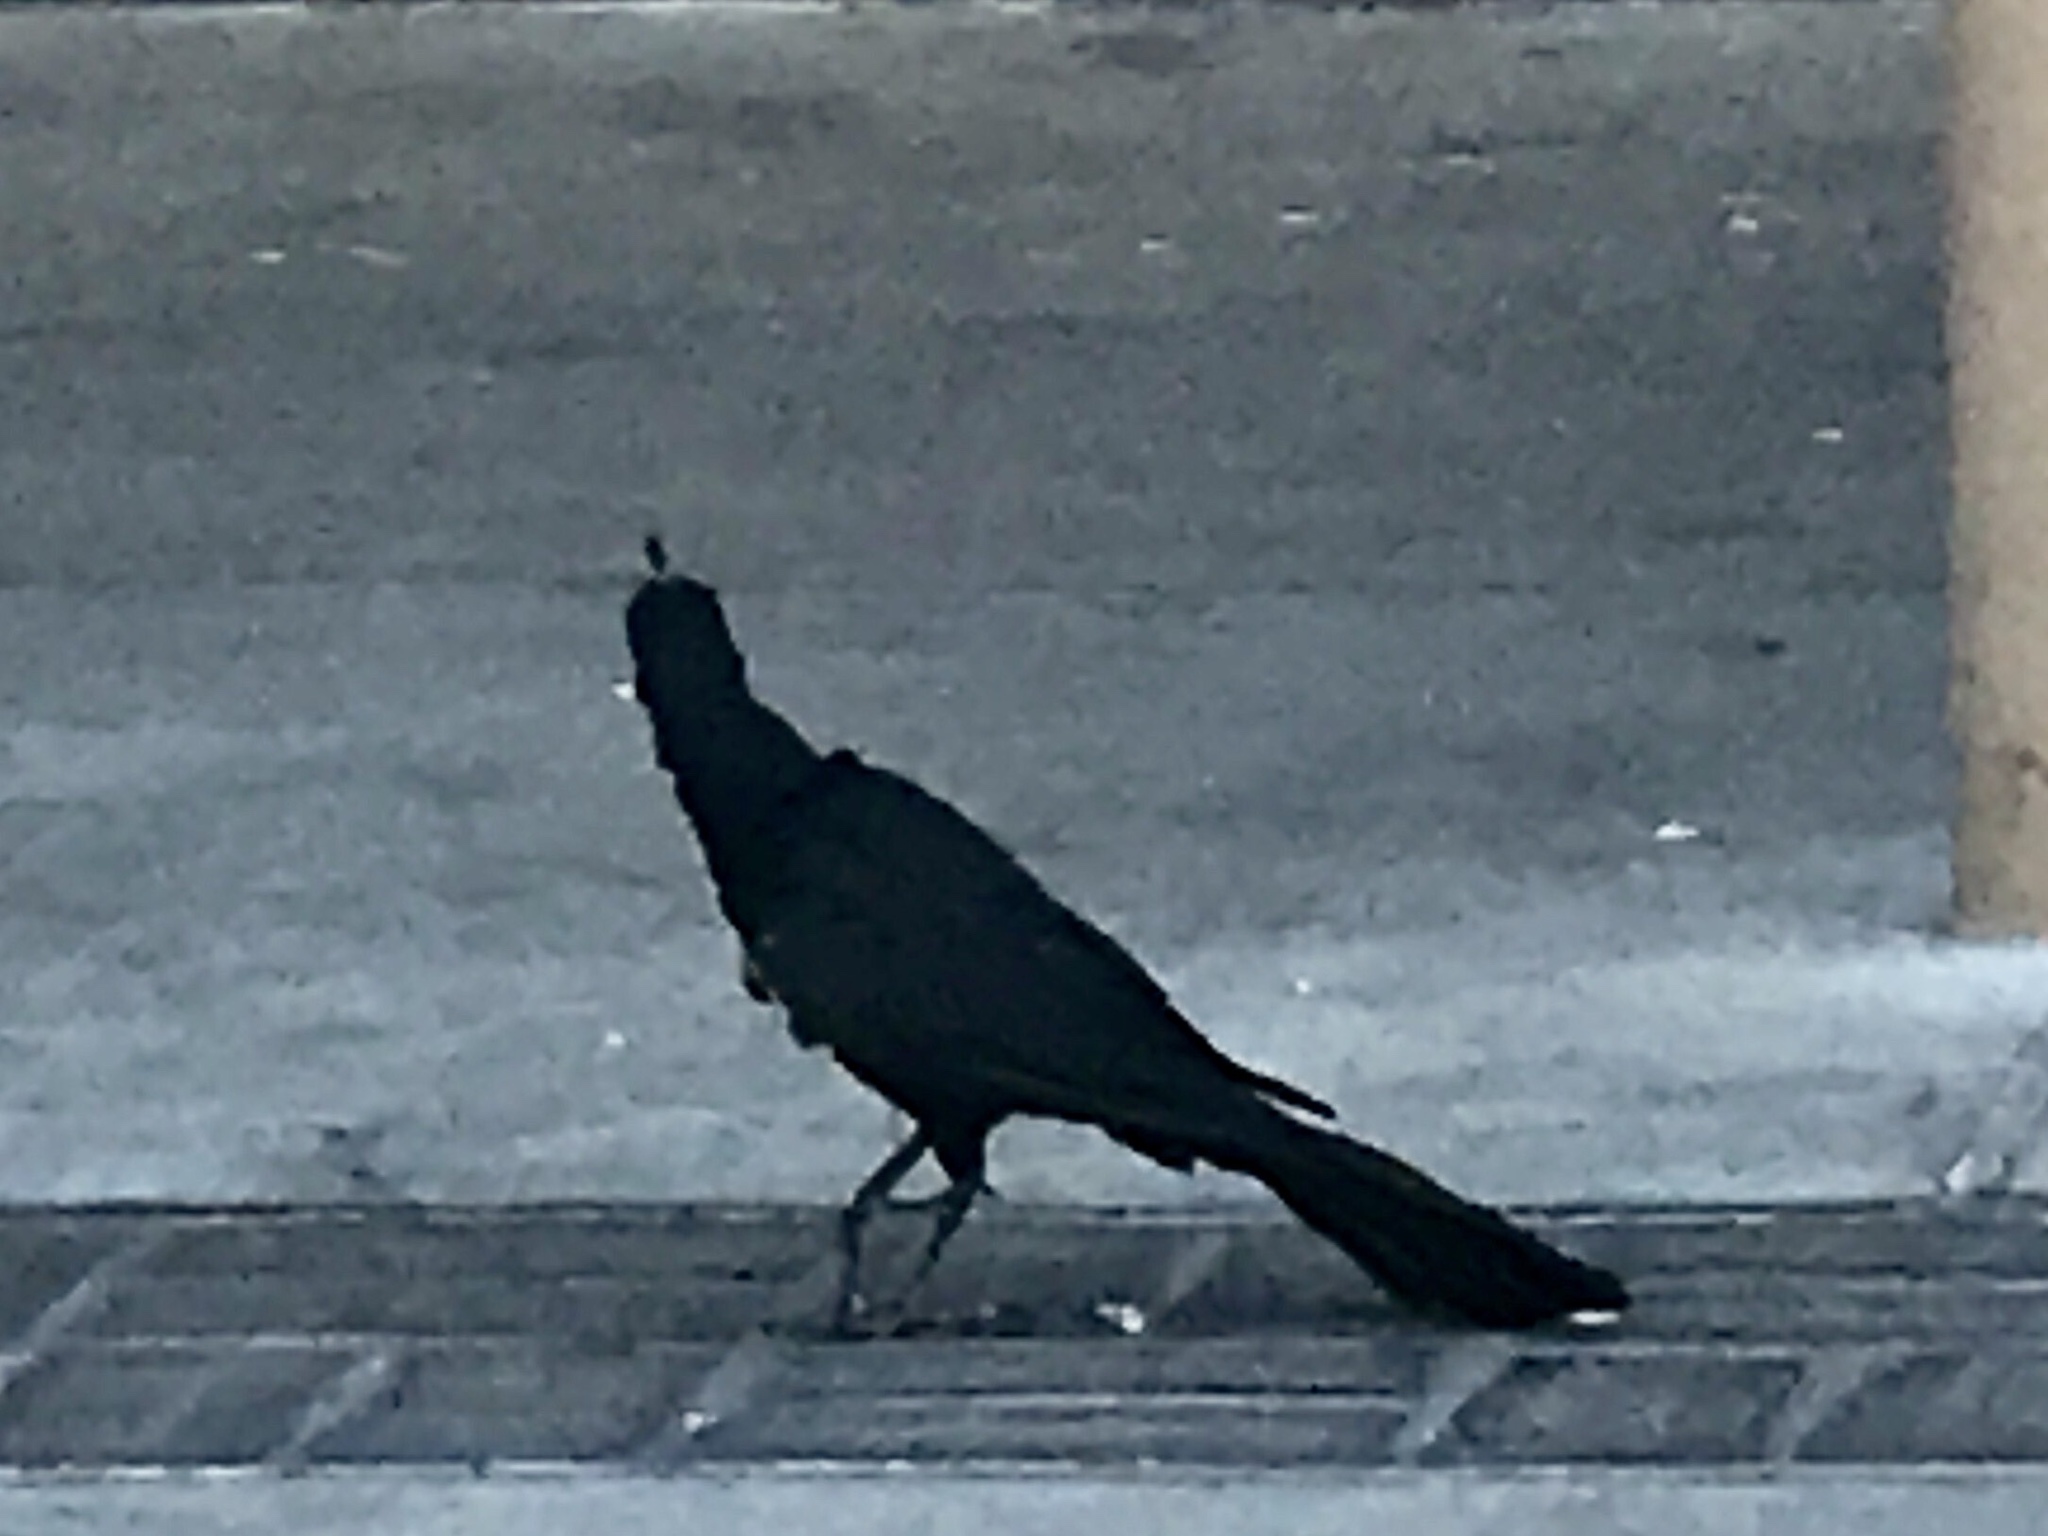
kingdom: Animalia
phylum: Chordata
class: Aves
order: Passeriformes
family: Icteridae
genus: Quiscalus
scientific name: Quiscalus mexicanus
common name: Great-tailed grackle
